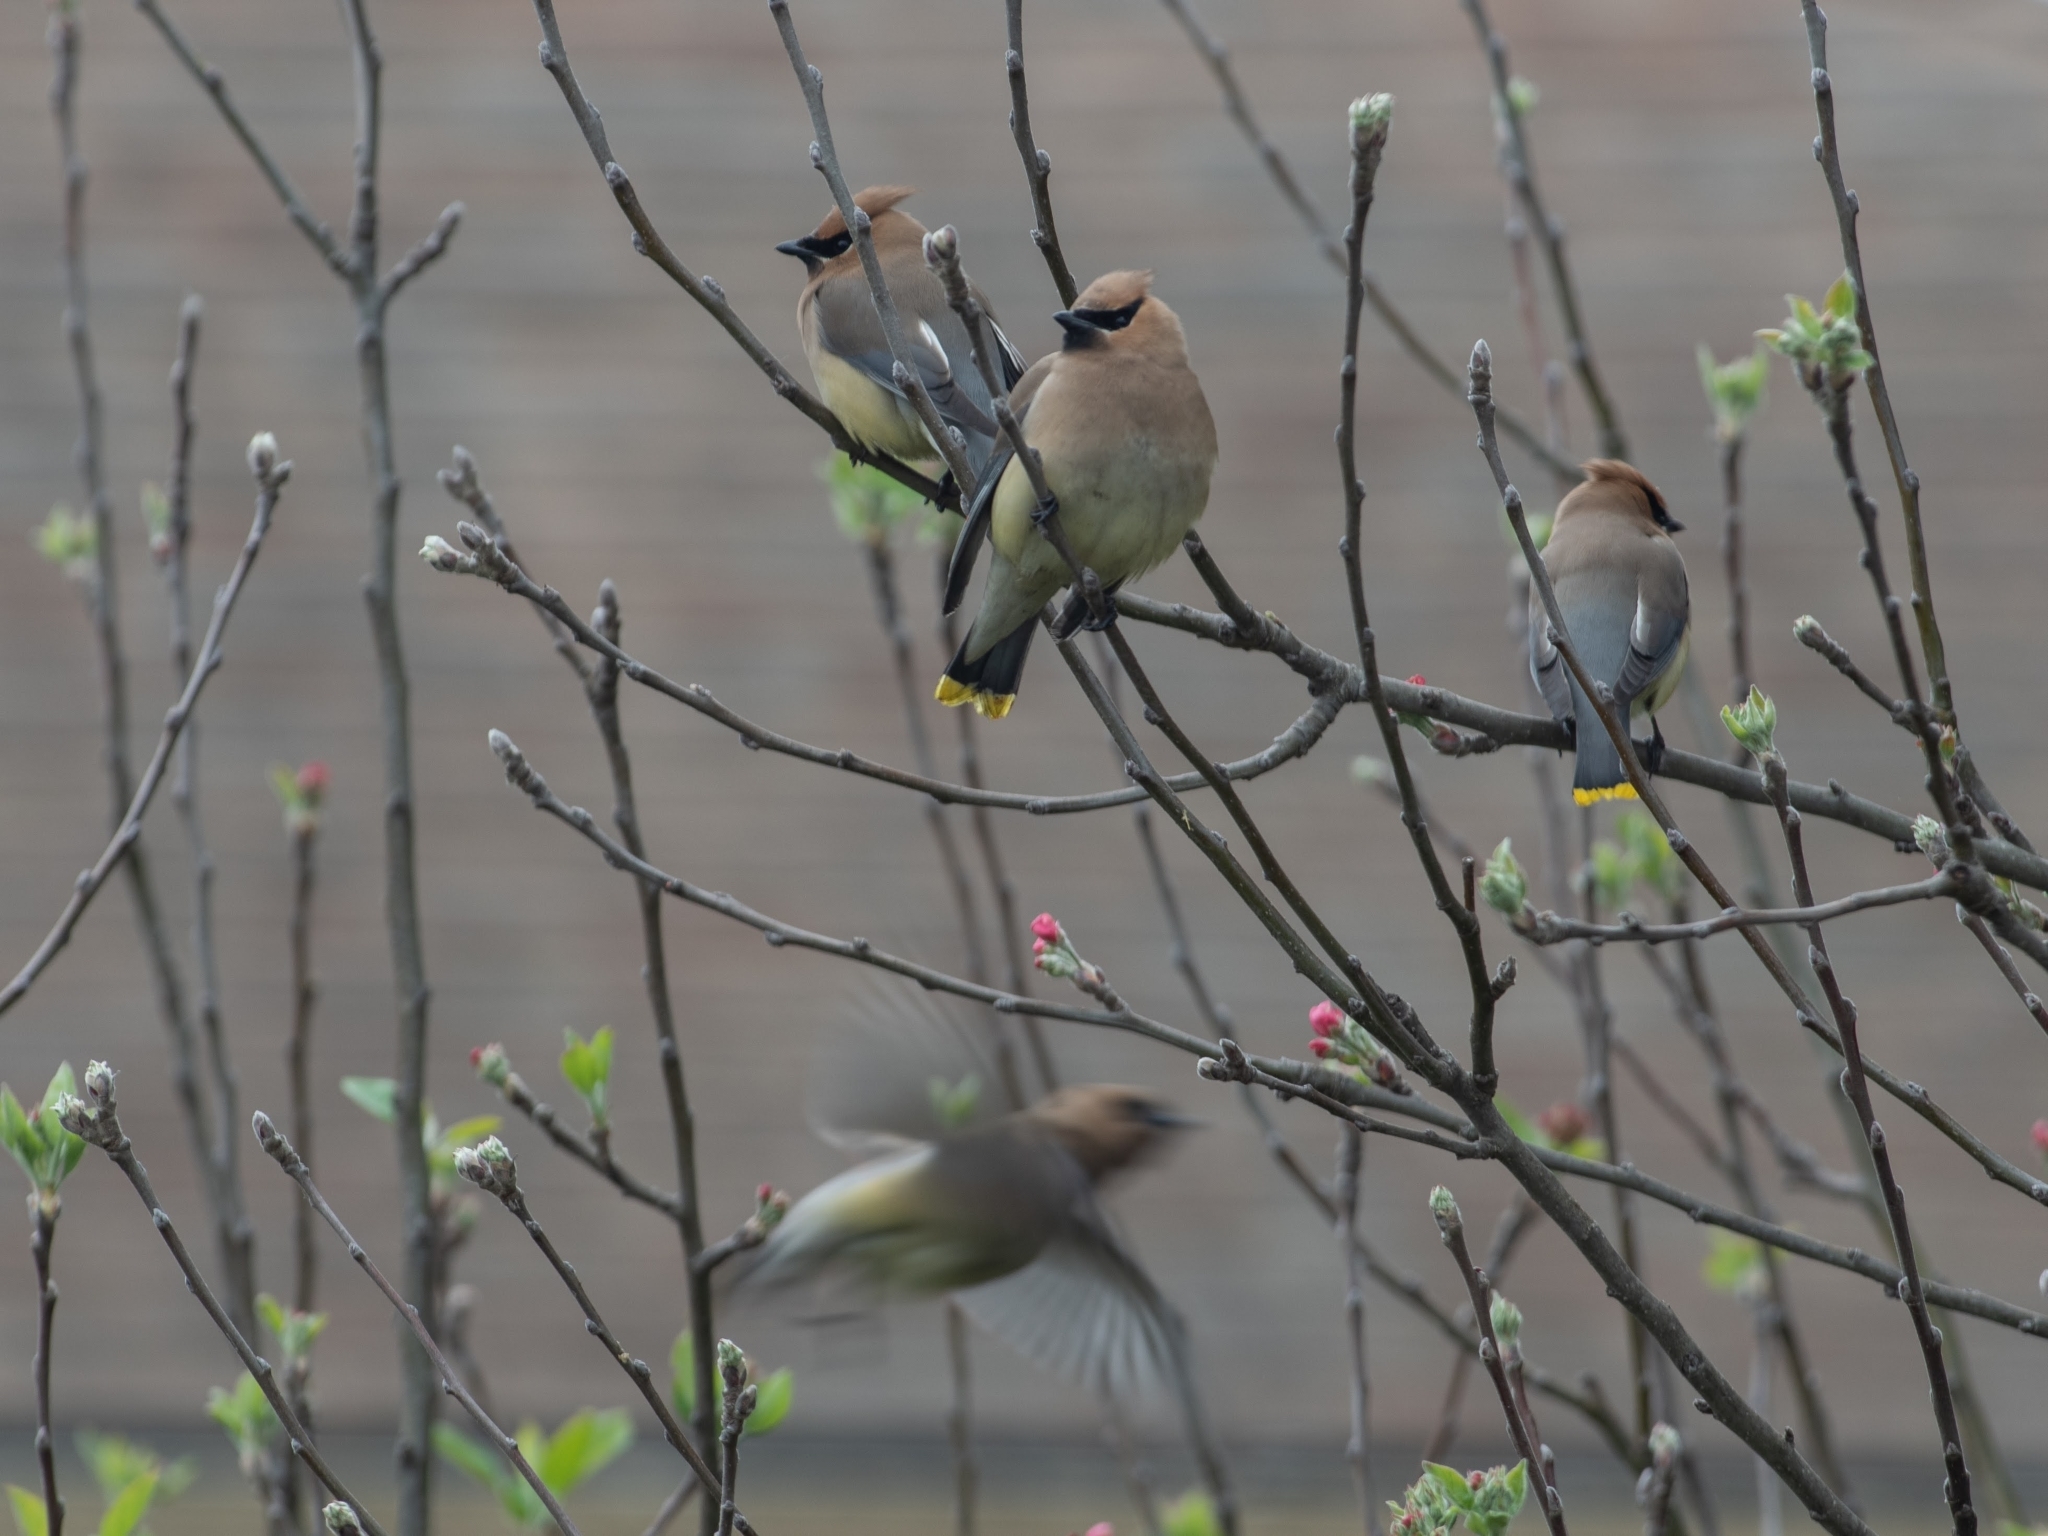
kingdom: Animalia
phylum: Chordata
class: Aves
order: Passeriformes
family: Bombycillidae
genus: Bombycilla
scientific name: Bombycilla cedrorum
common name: Cedar waxwing
